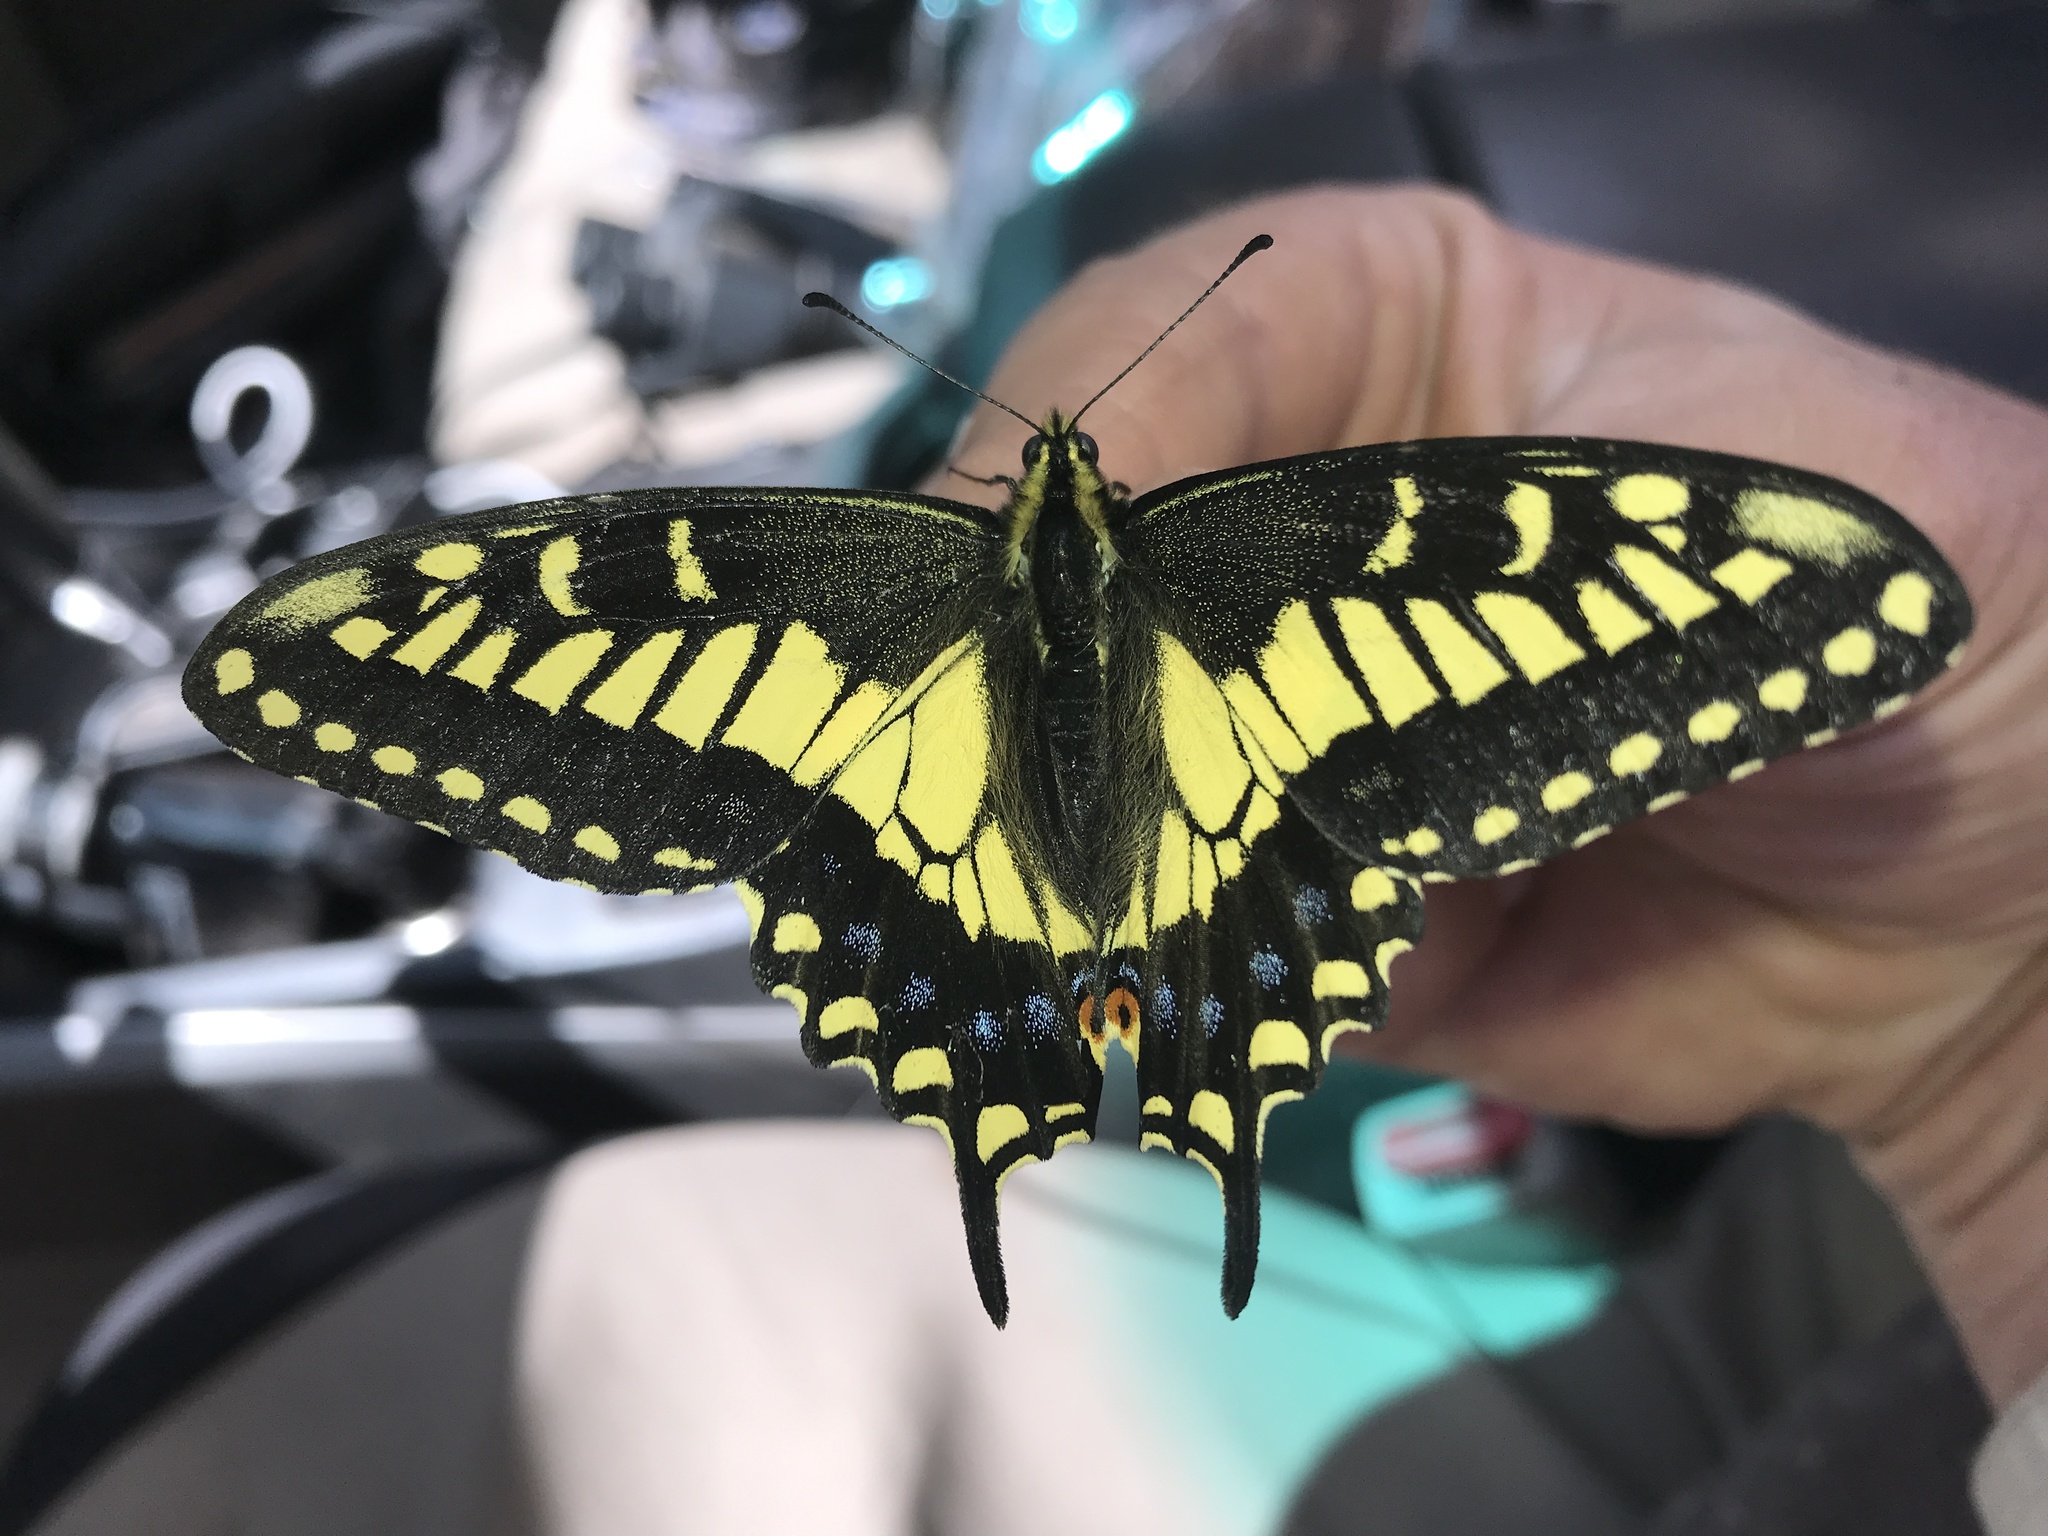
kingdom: Animalia
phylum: Arthropoda
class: Insecta
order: Lepidoptera
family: Papilionidae
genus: Papilio
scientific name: Papilio zelicaon
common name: Anise swallowtail
